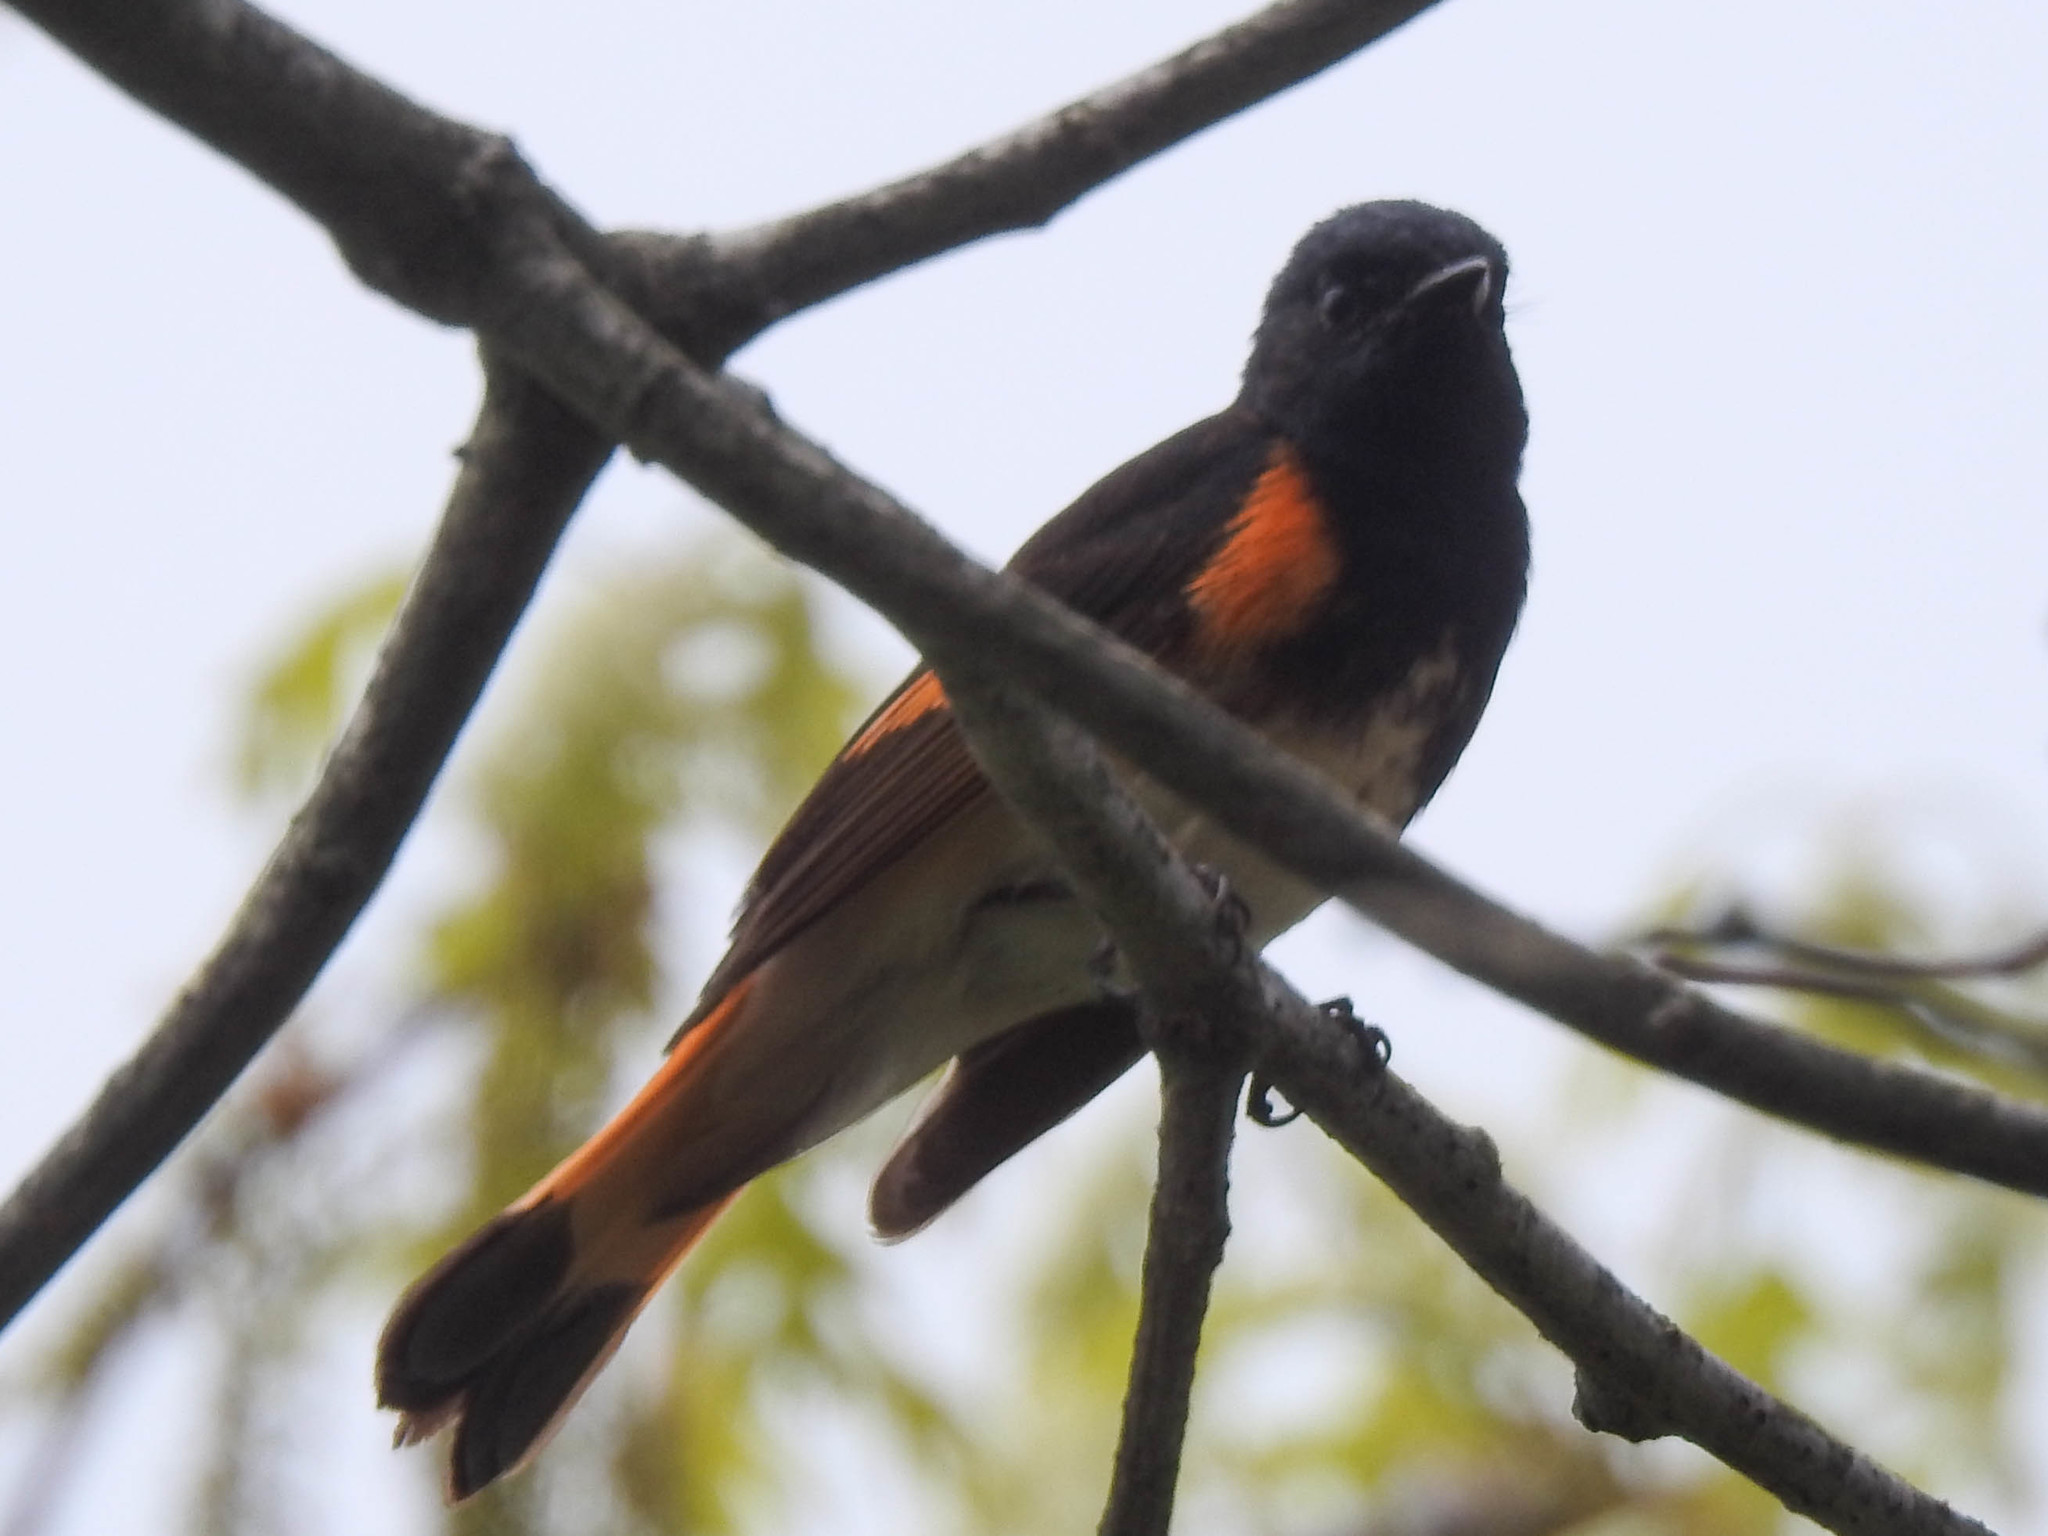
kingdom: Animalia
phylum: Chordata
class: Aves
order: Passeriformes
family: Parulidae
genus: Setophaga
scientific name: Setophaga ruticilla
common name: American redstart
